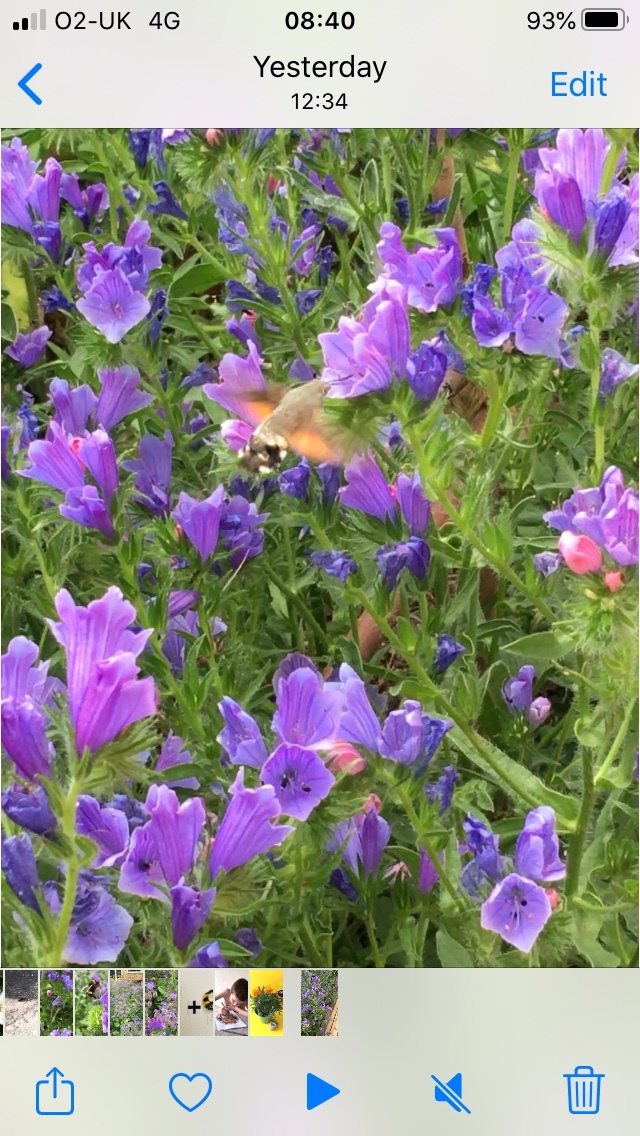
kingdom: Animalia
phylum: Arthropoda
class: Insecta
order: Lepidoptera
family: Sphingidae
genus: Macroglossum
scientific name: Macroglossum stellatarum
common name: Humming-bird hawk-moth
